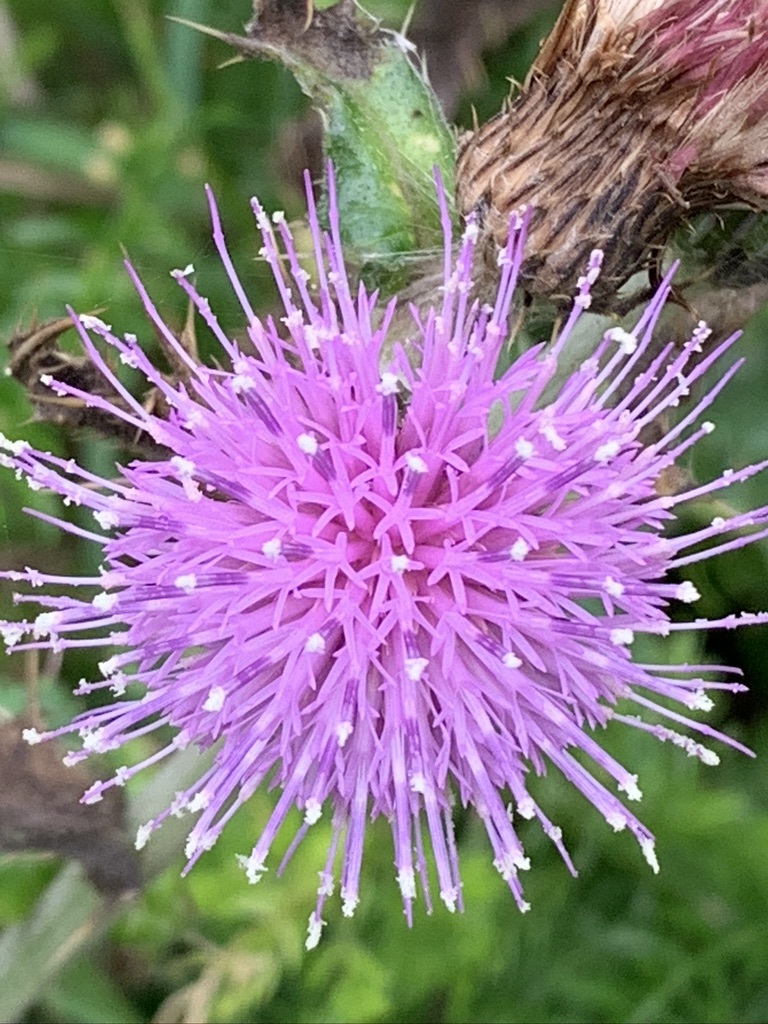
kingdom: Plantae
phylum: Tracheophyta
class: Magnoliopsida
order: Asterales
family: Asteraceae
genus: Cirsium
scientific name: Cirsium japonicum
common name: Japanese thistle
